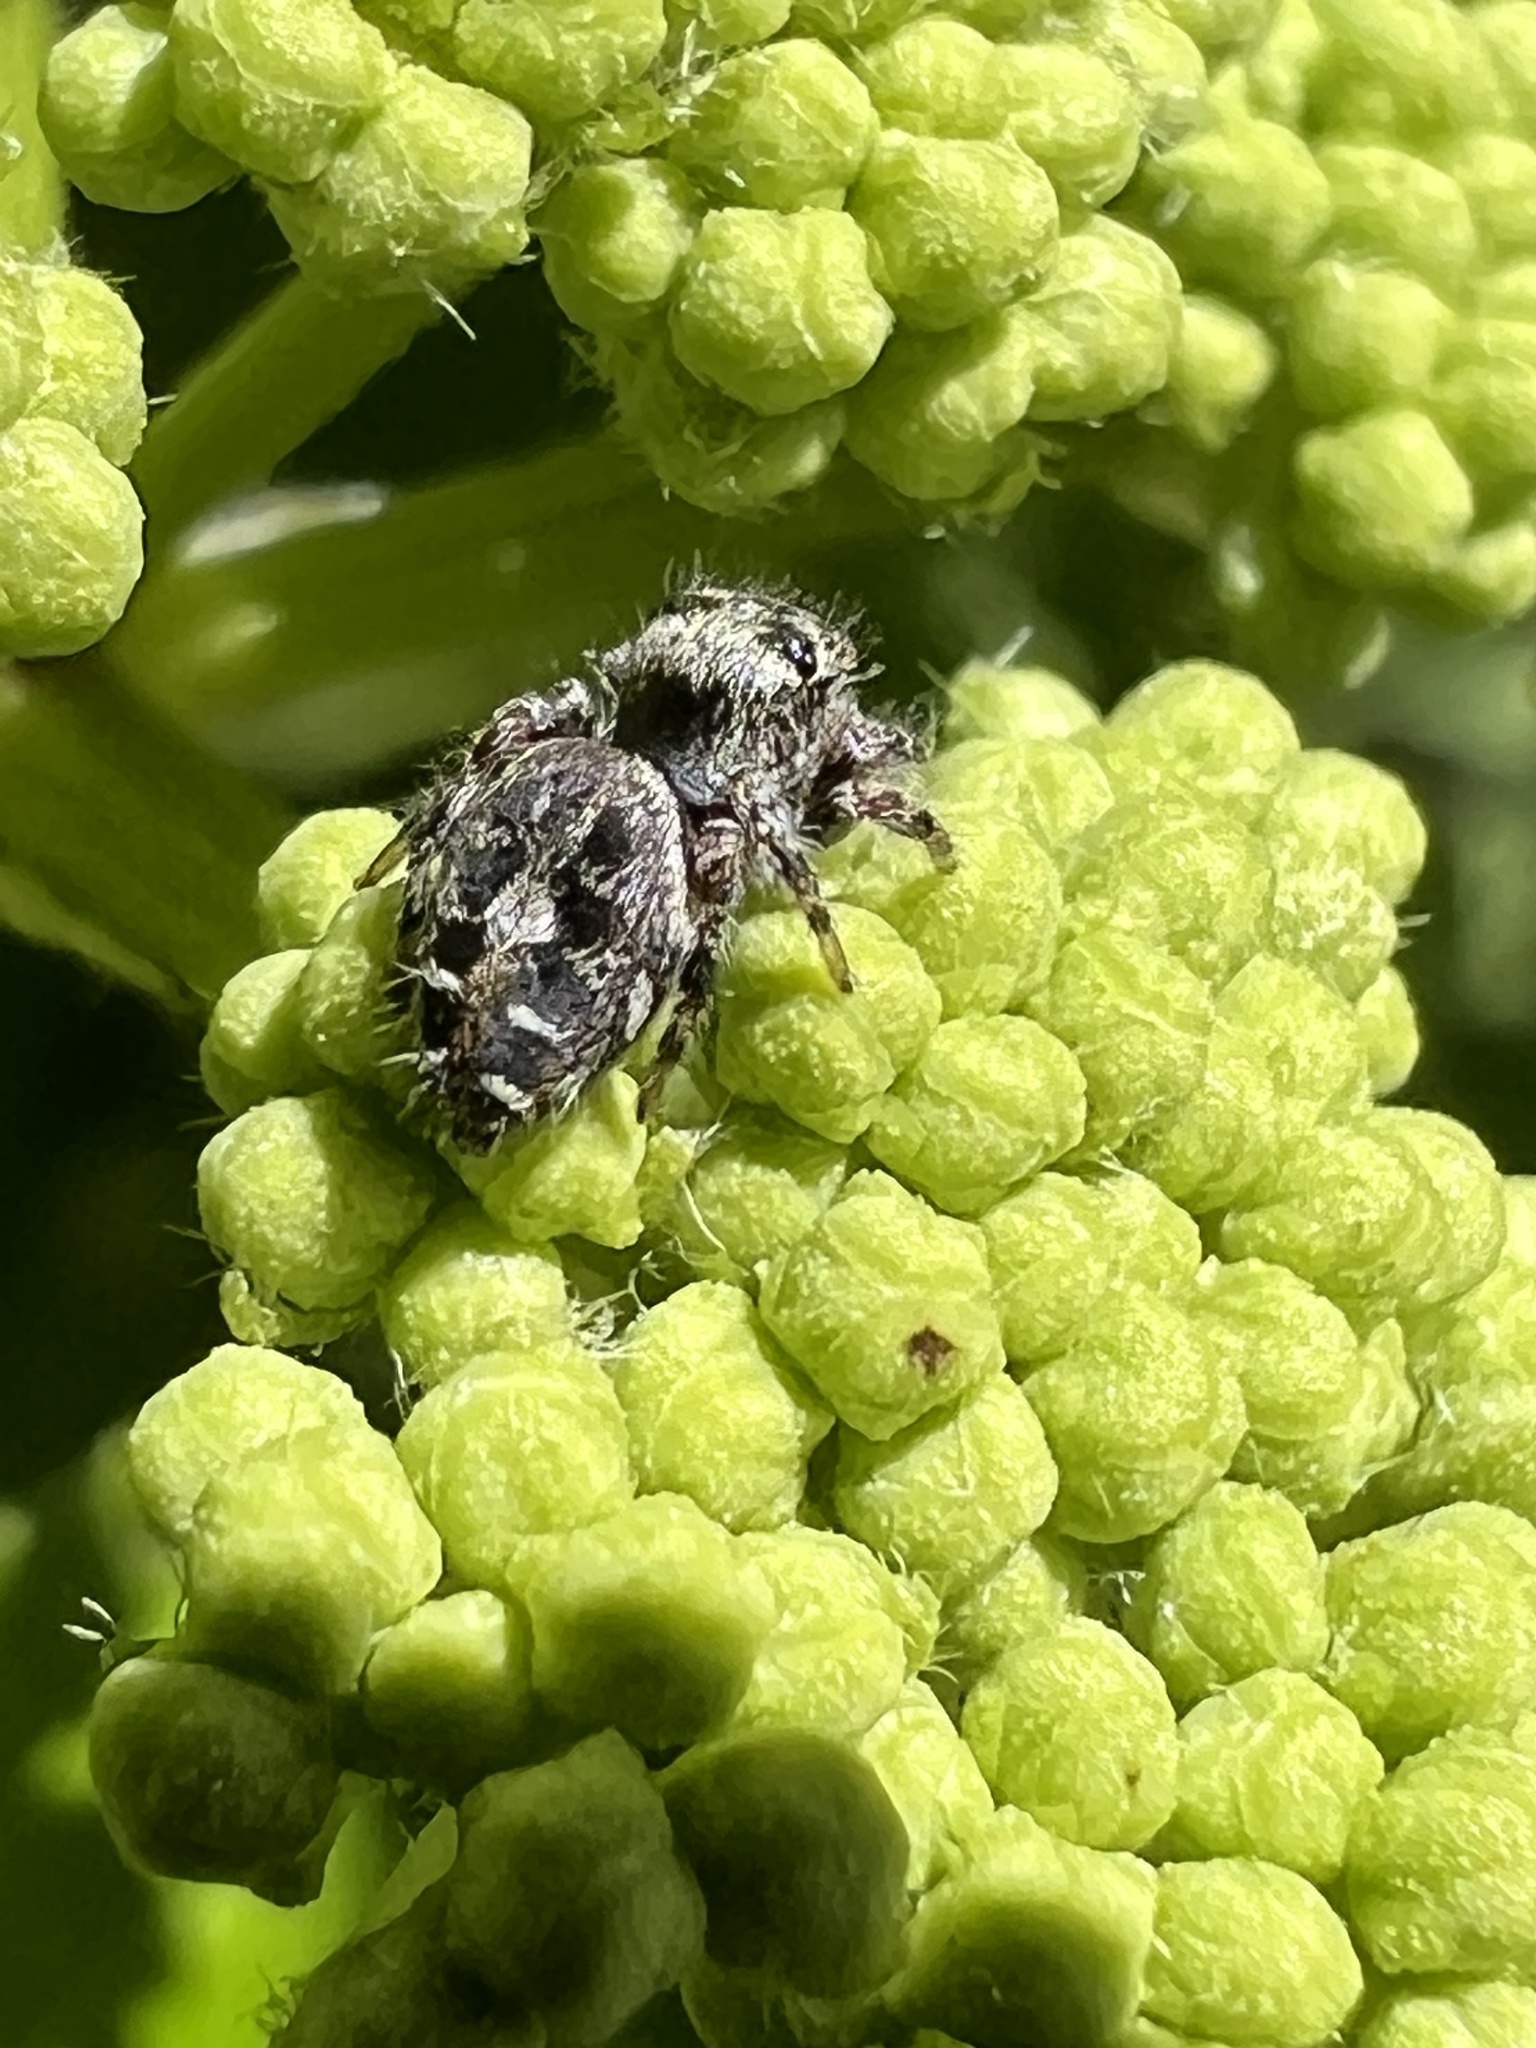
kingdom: Animalia
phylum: Arthropoda
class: Arachnida
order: Araneae
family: Salticidae
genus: Phidippus
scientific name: Phidippus putnami
